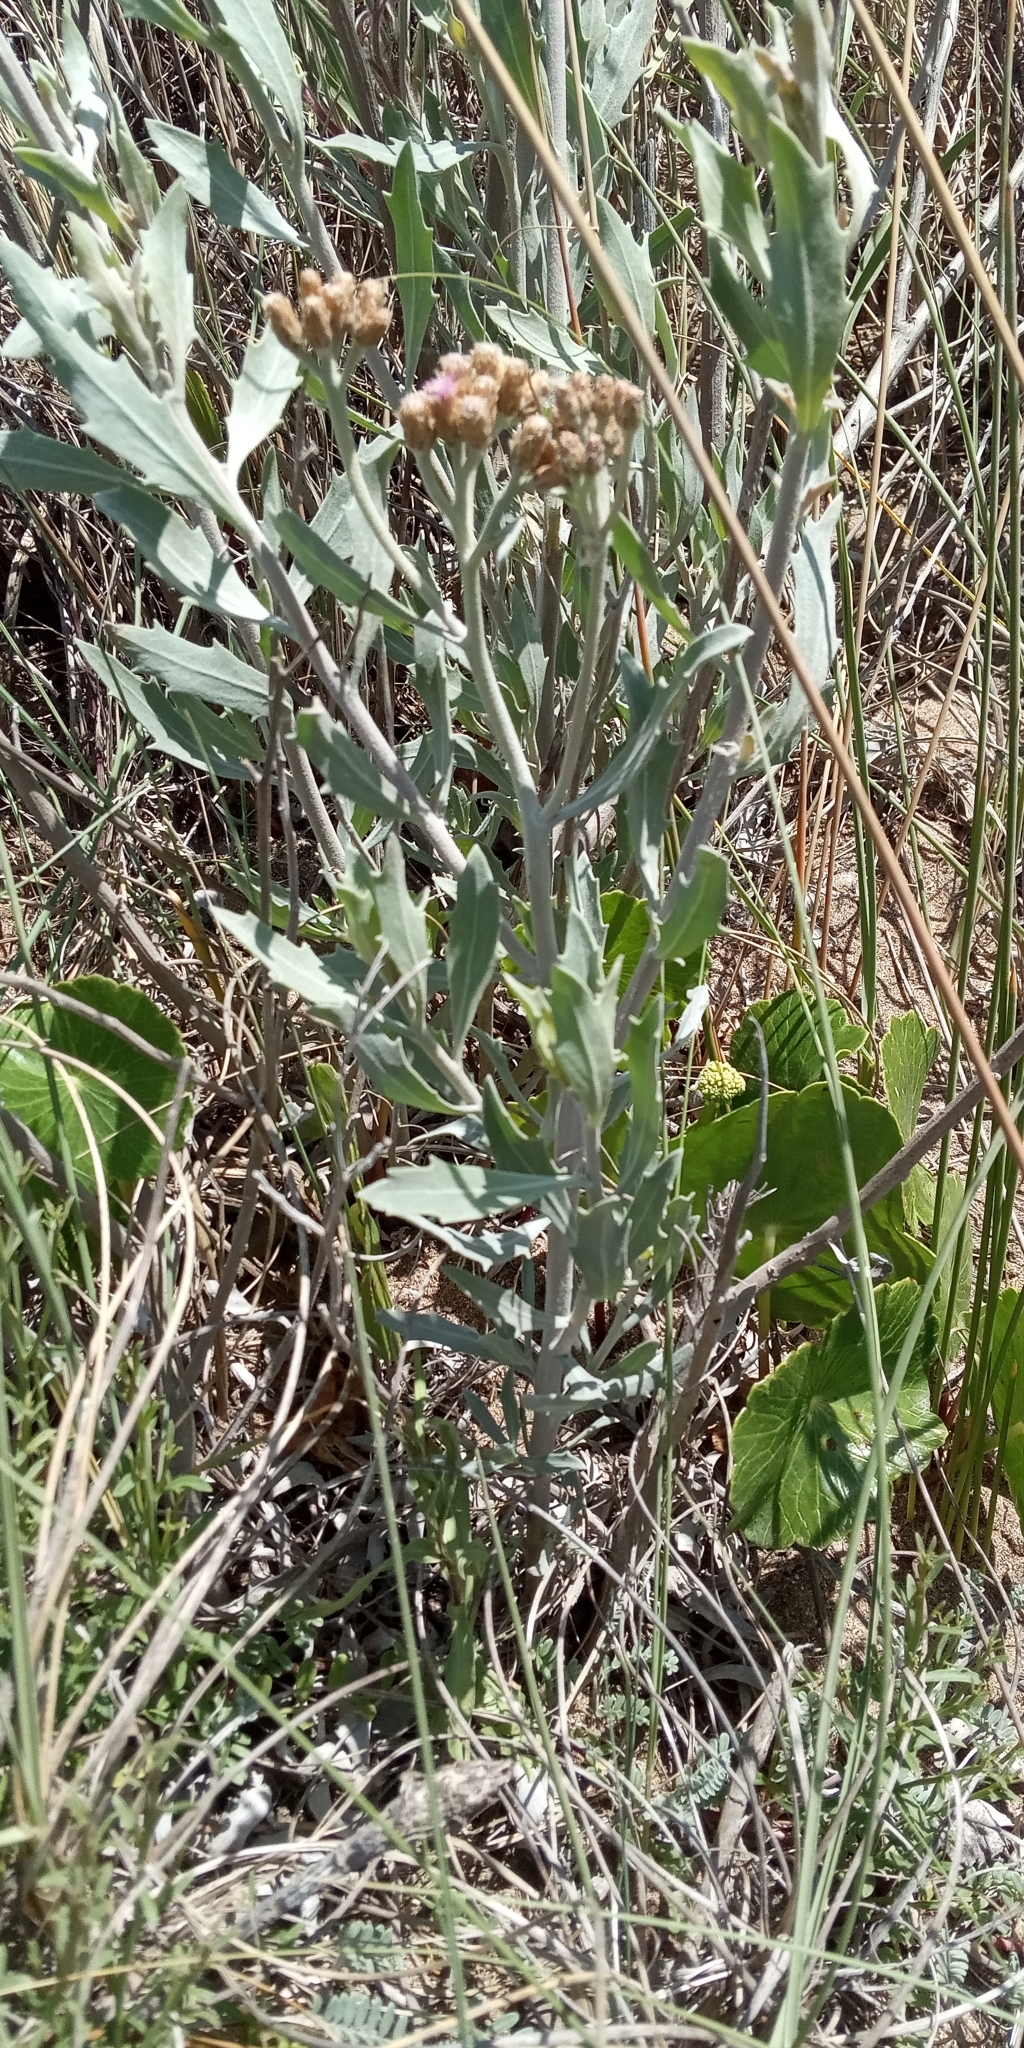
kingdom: Plantae
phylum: Tracheophyta
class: Magnoliopsida
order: Asterales
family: Asteraceae
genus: Tessaria
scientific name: Tessaria absinthioides
